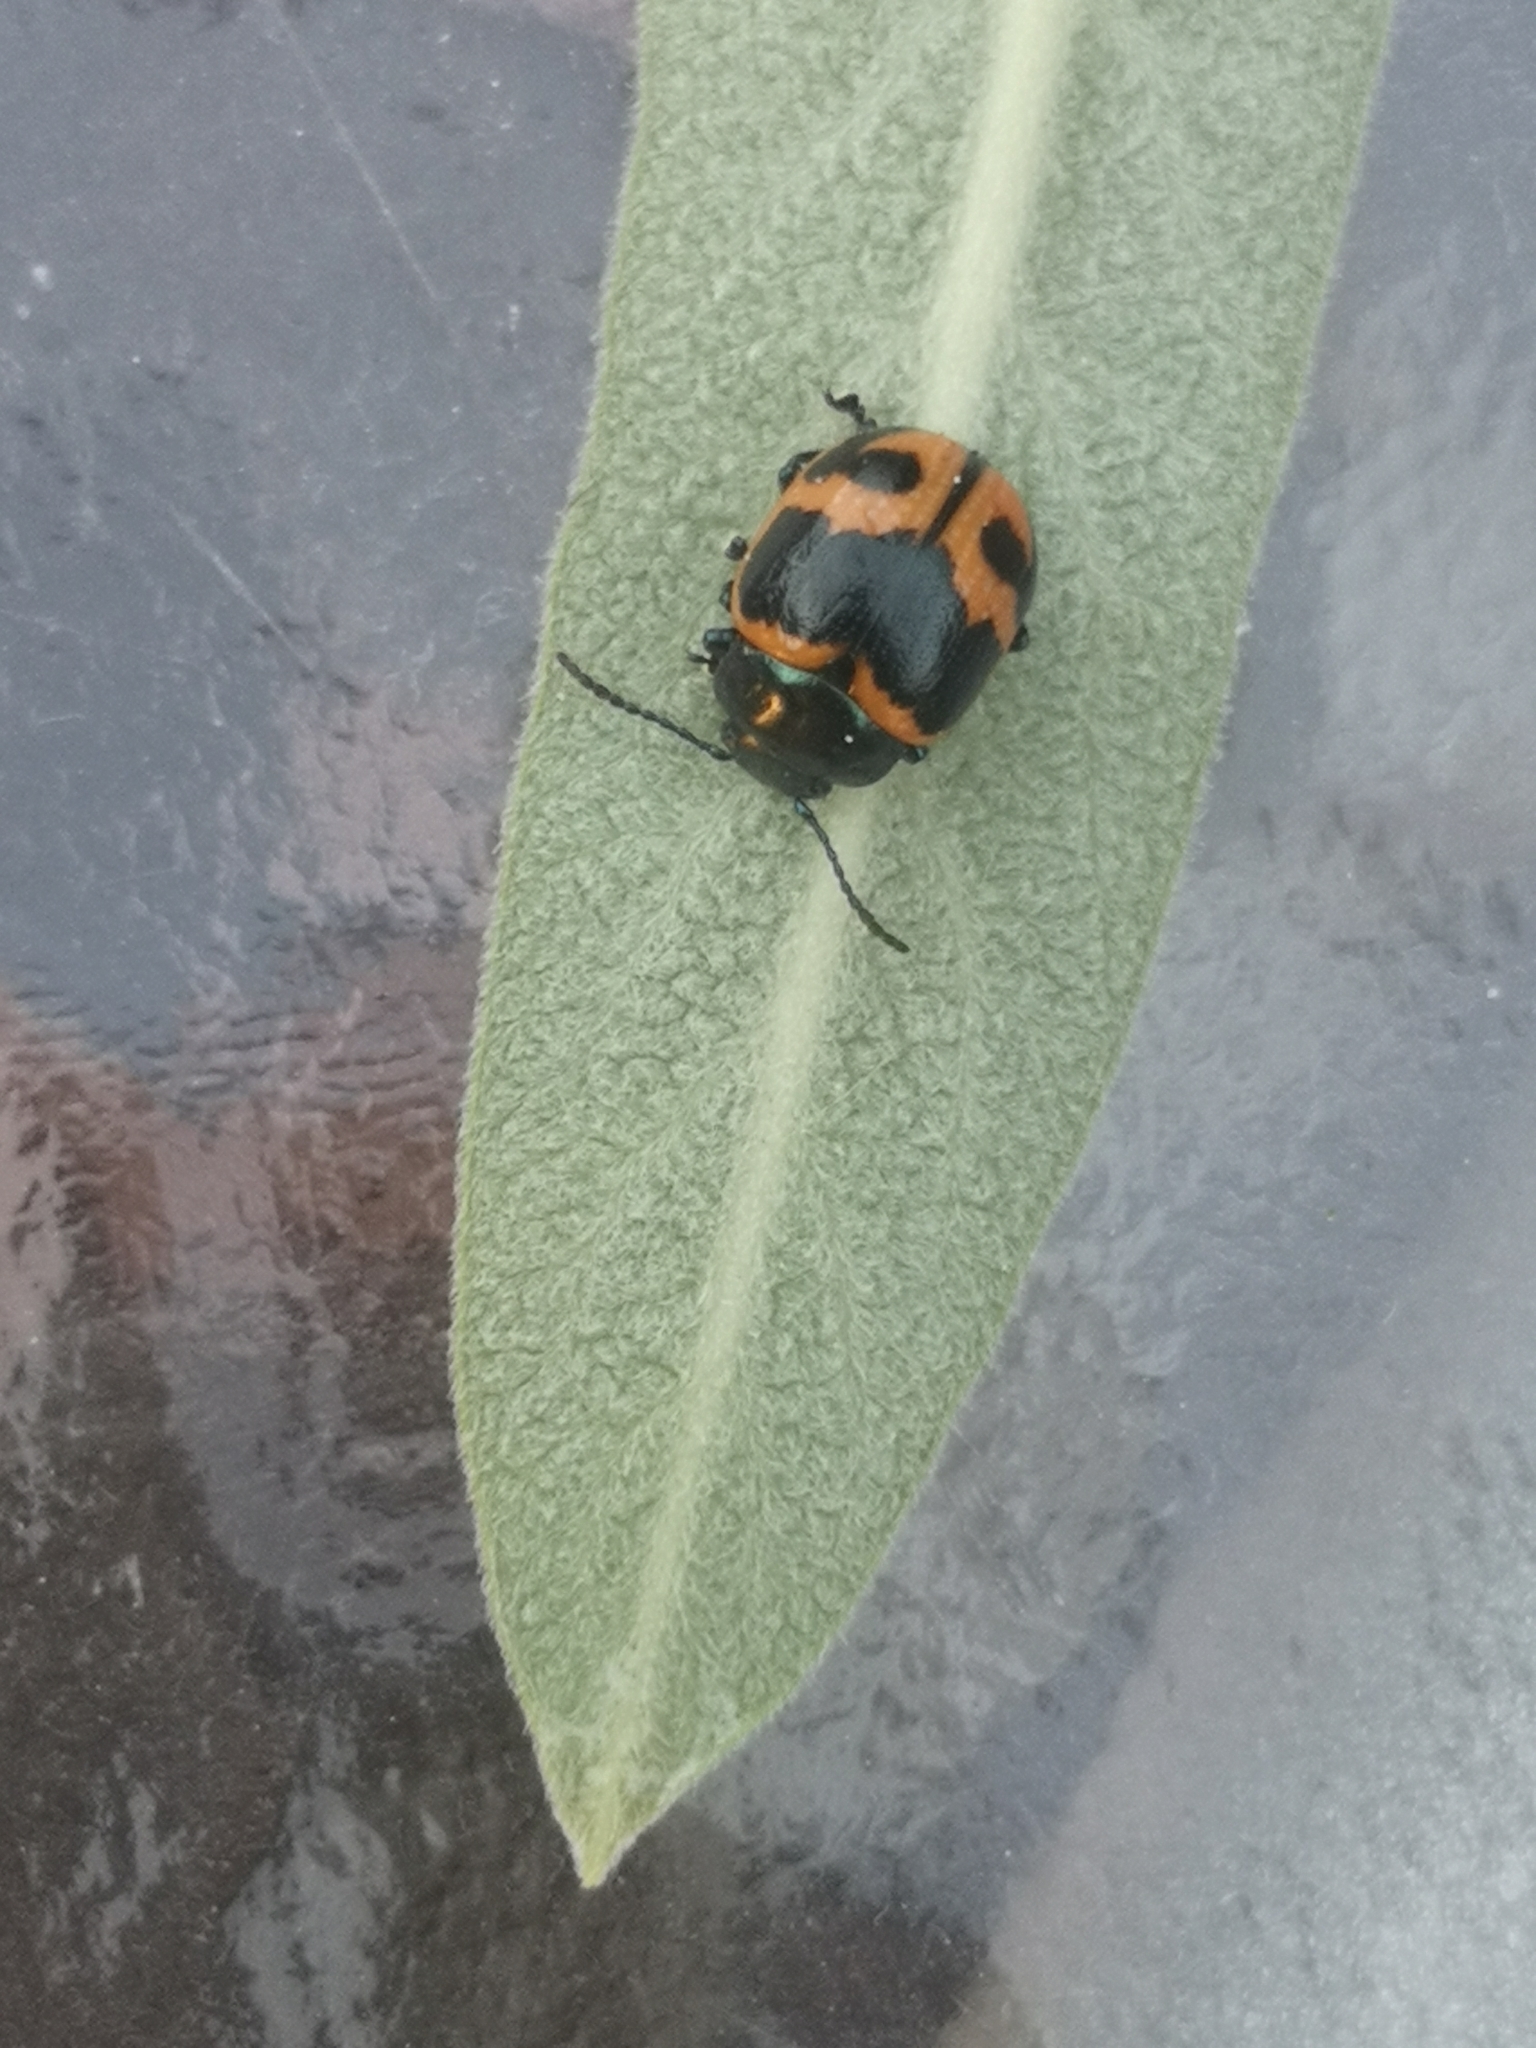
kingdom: Animalia
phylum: Arthropoda
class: Insecta
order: Coleoptera
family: Chrysomelidae
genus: Labidomera
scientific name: Labidomera clivicollis
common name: Swamp milkweed leaf beetle
